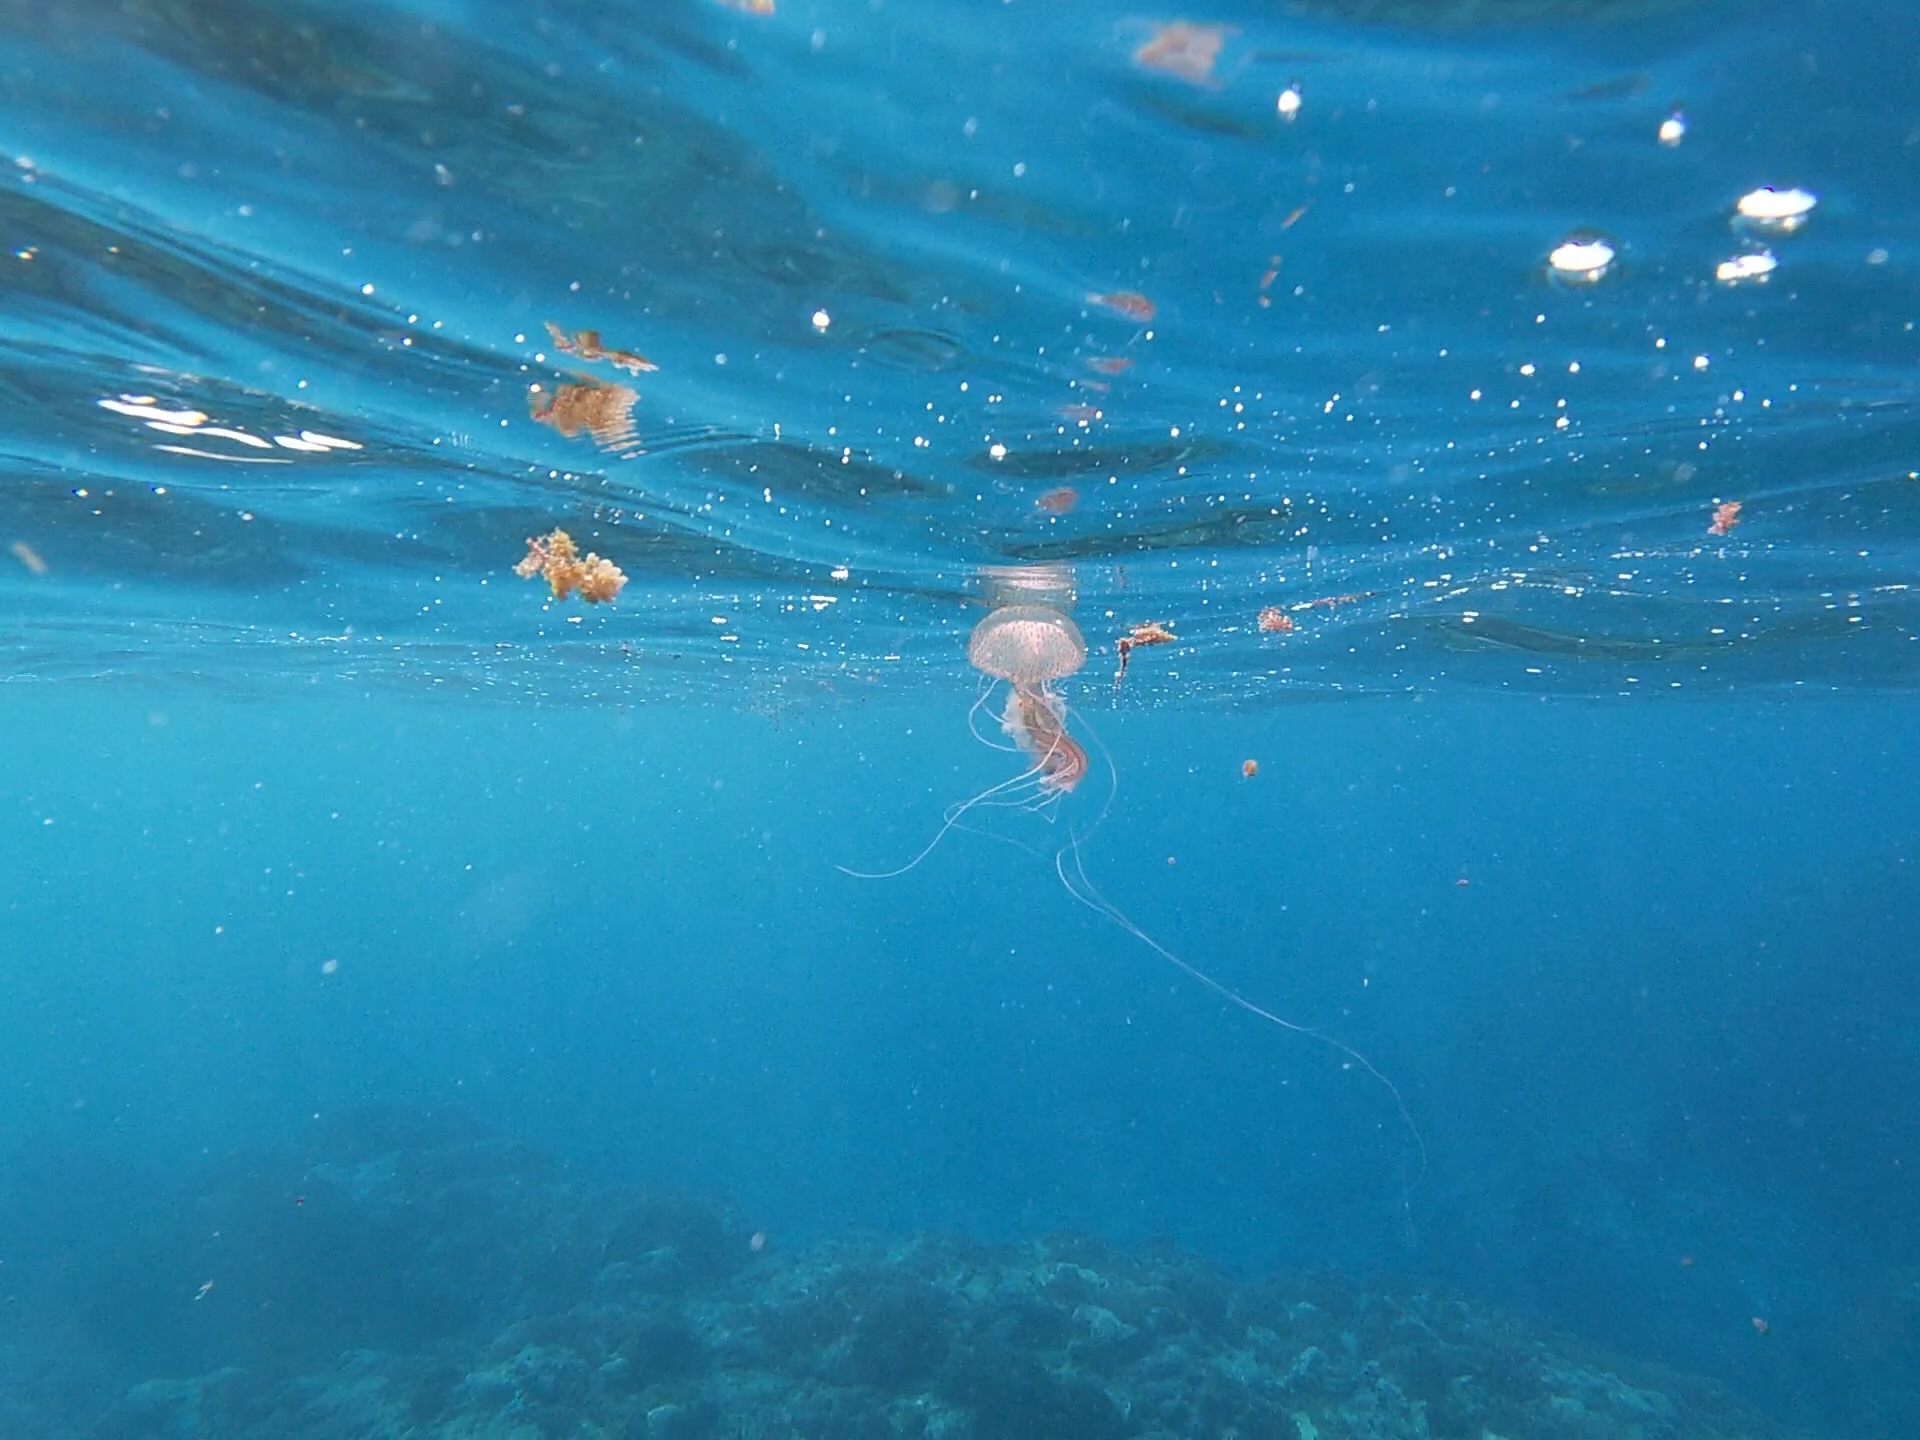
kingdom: Animalia
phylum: Cnidaria
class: Scyphozoa
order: Semaeostomeae
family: Pelagiidae
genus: Pelagia
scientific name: Pelagia noctiluca
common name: Mauve stinger
